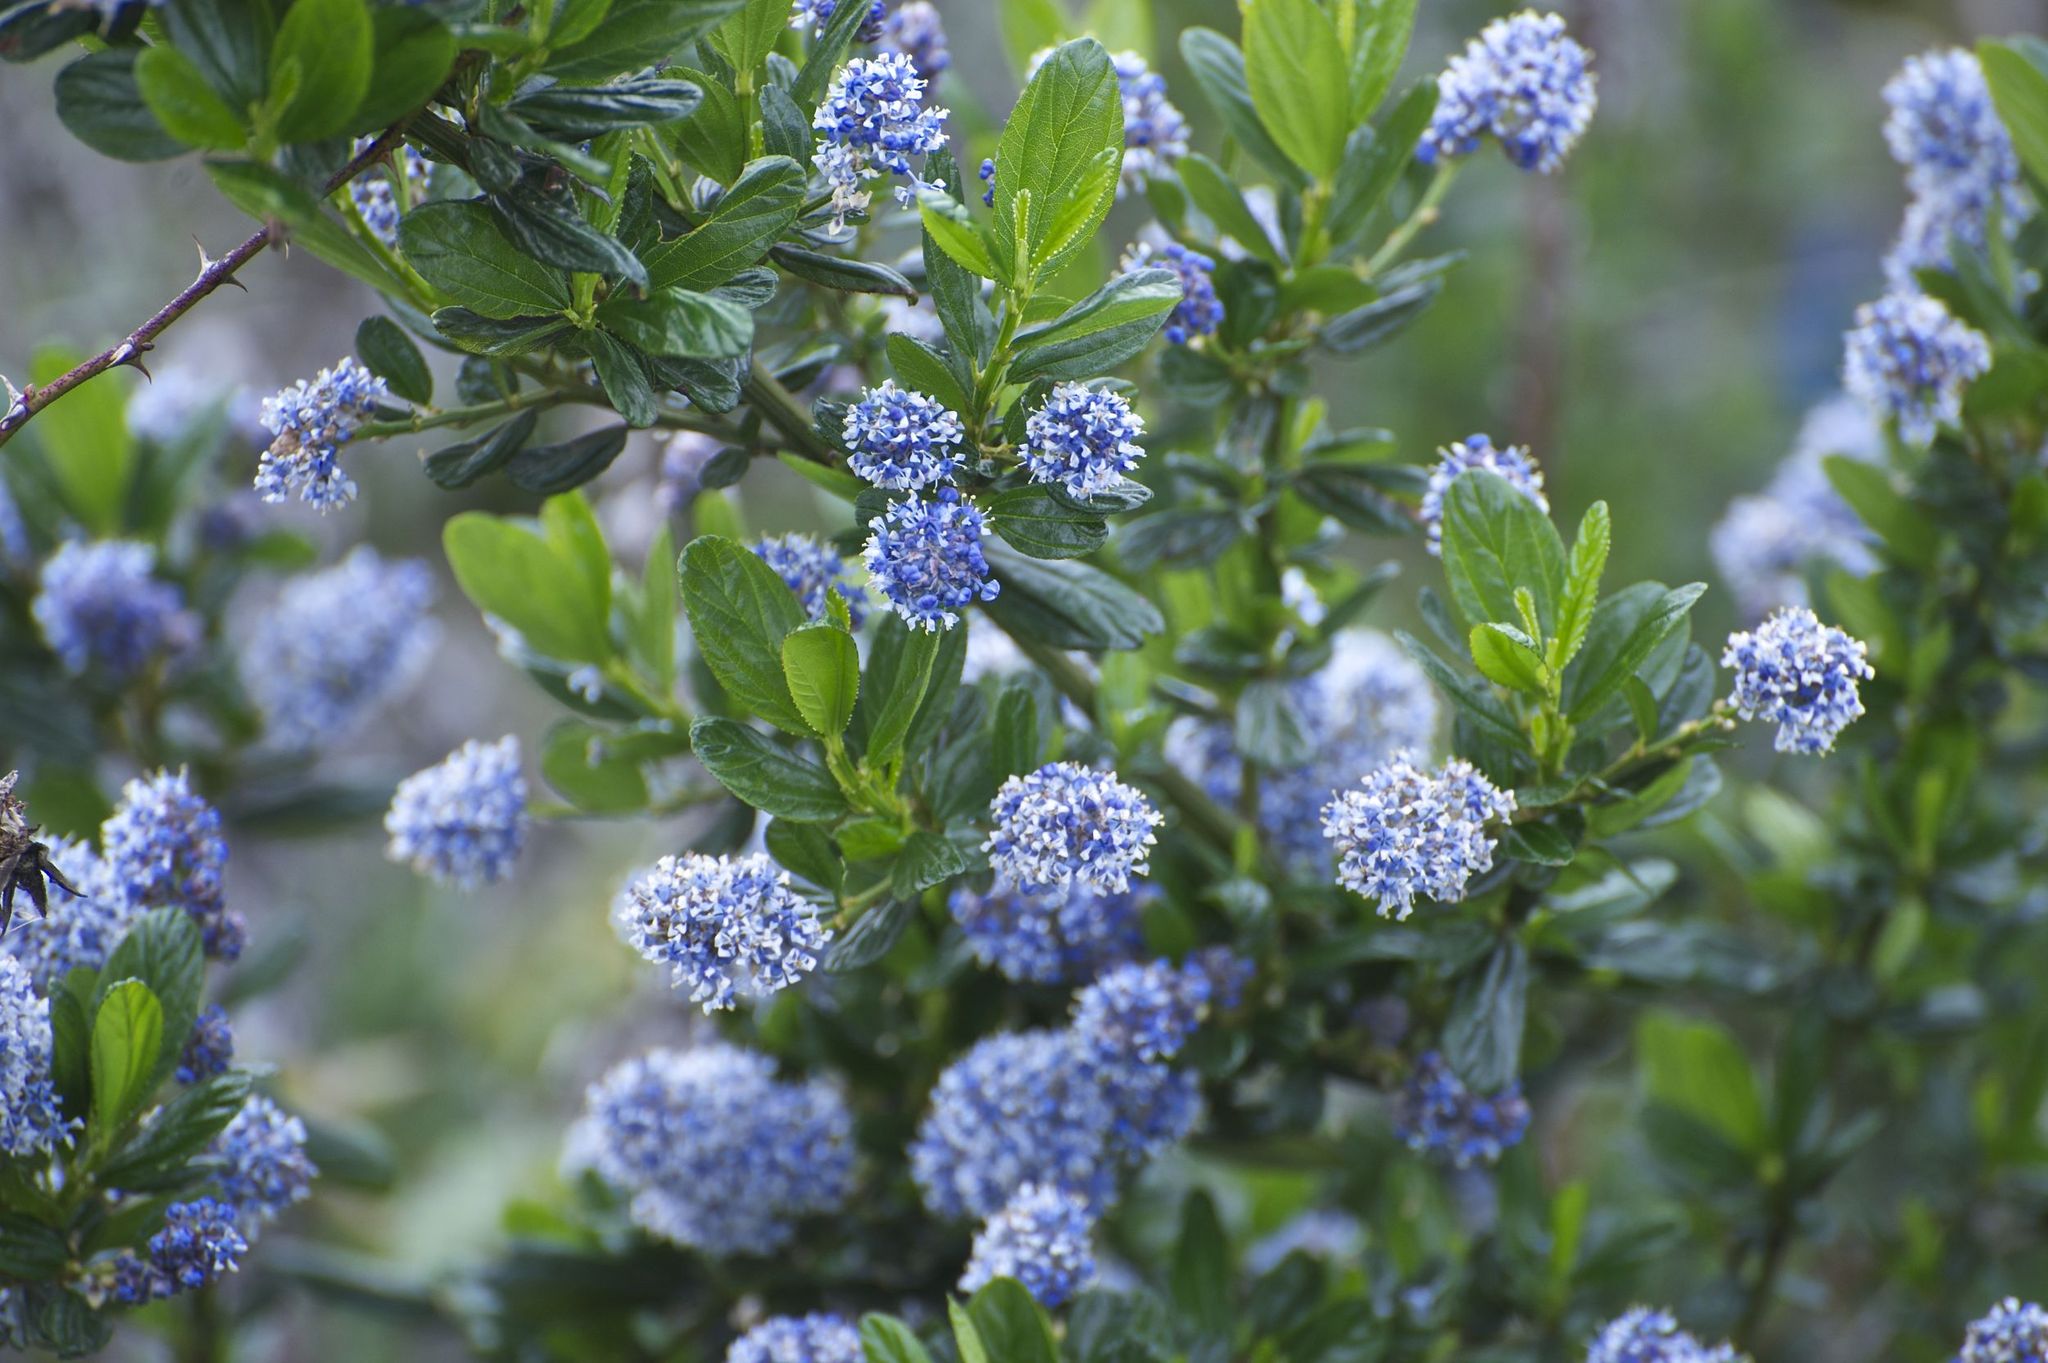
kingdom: Plantae
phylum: Tracheophyta
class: Magnoliopsida
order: Rosales
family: Rhamnaceae
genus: Ceanothus
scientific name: Ceanothus thyrsiflorus
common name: California-lilac
